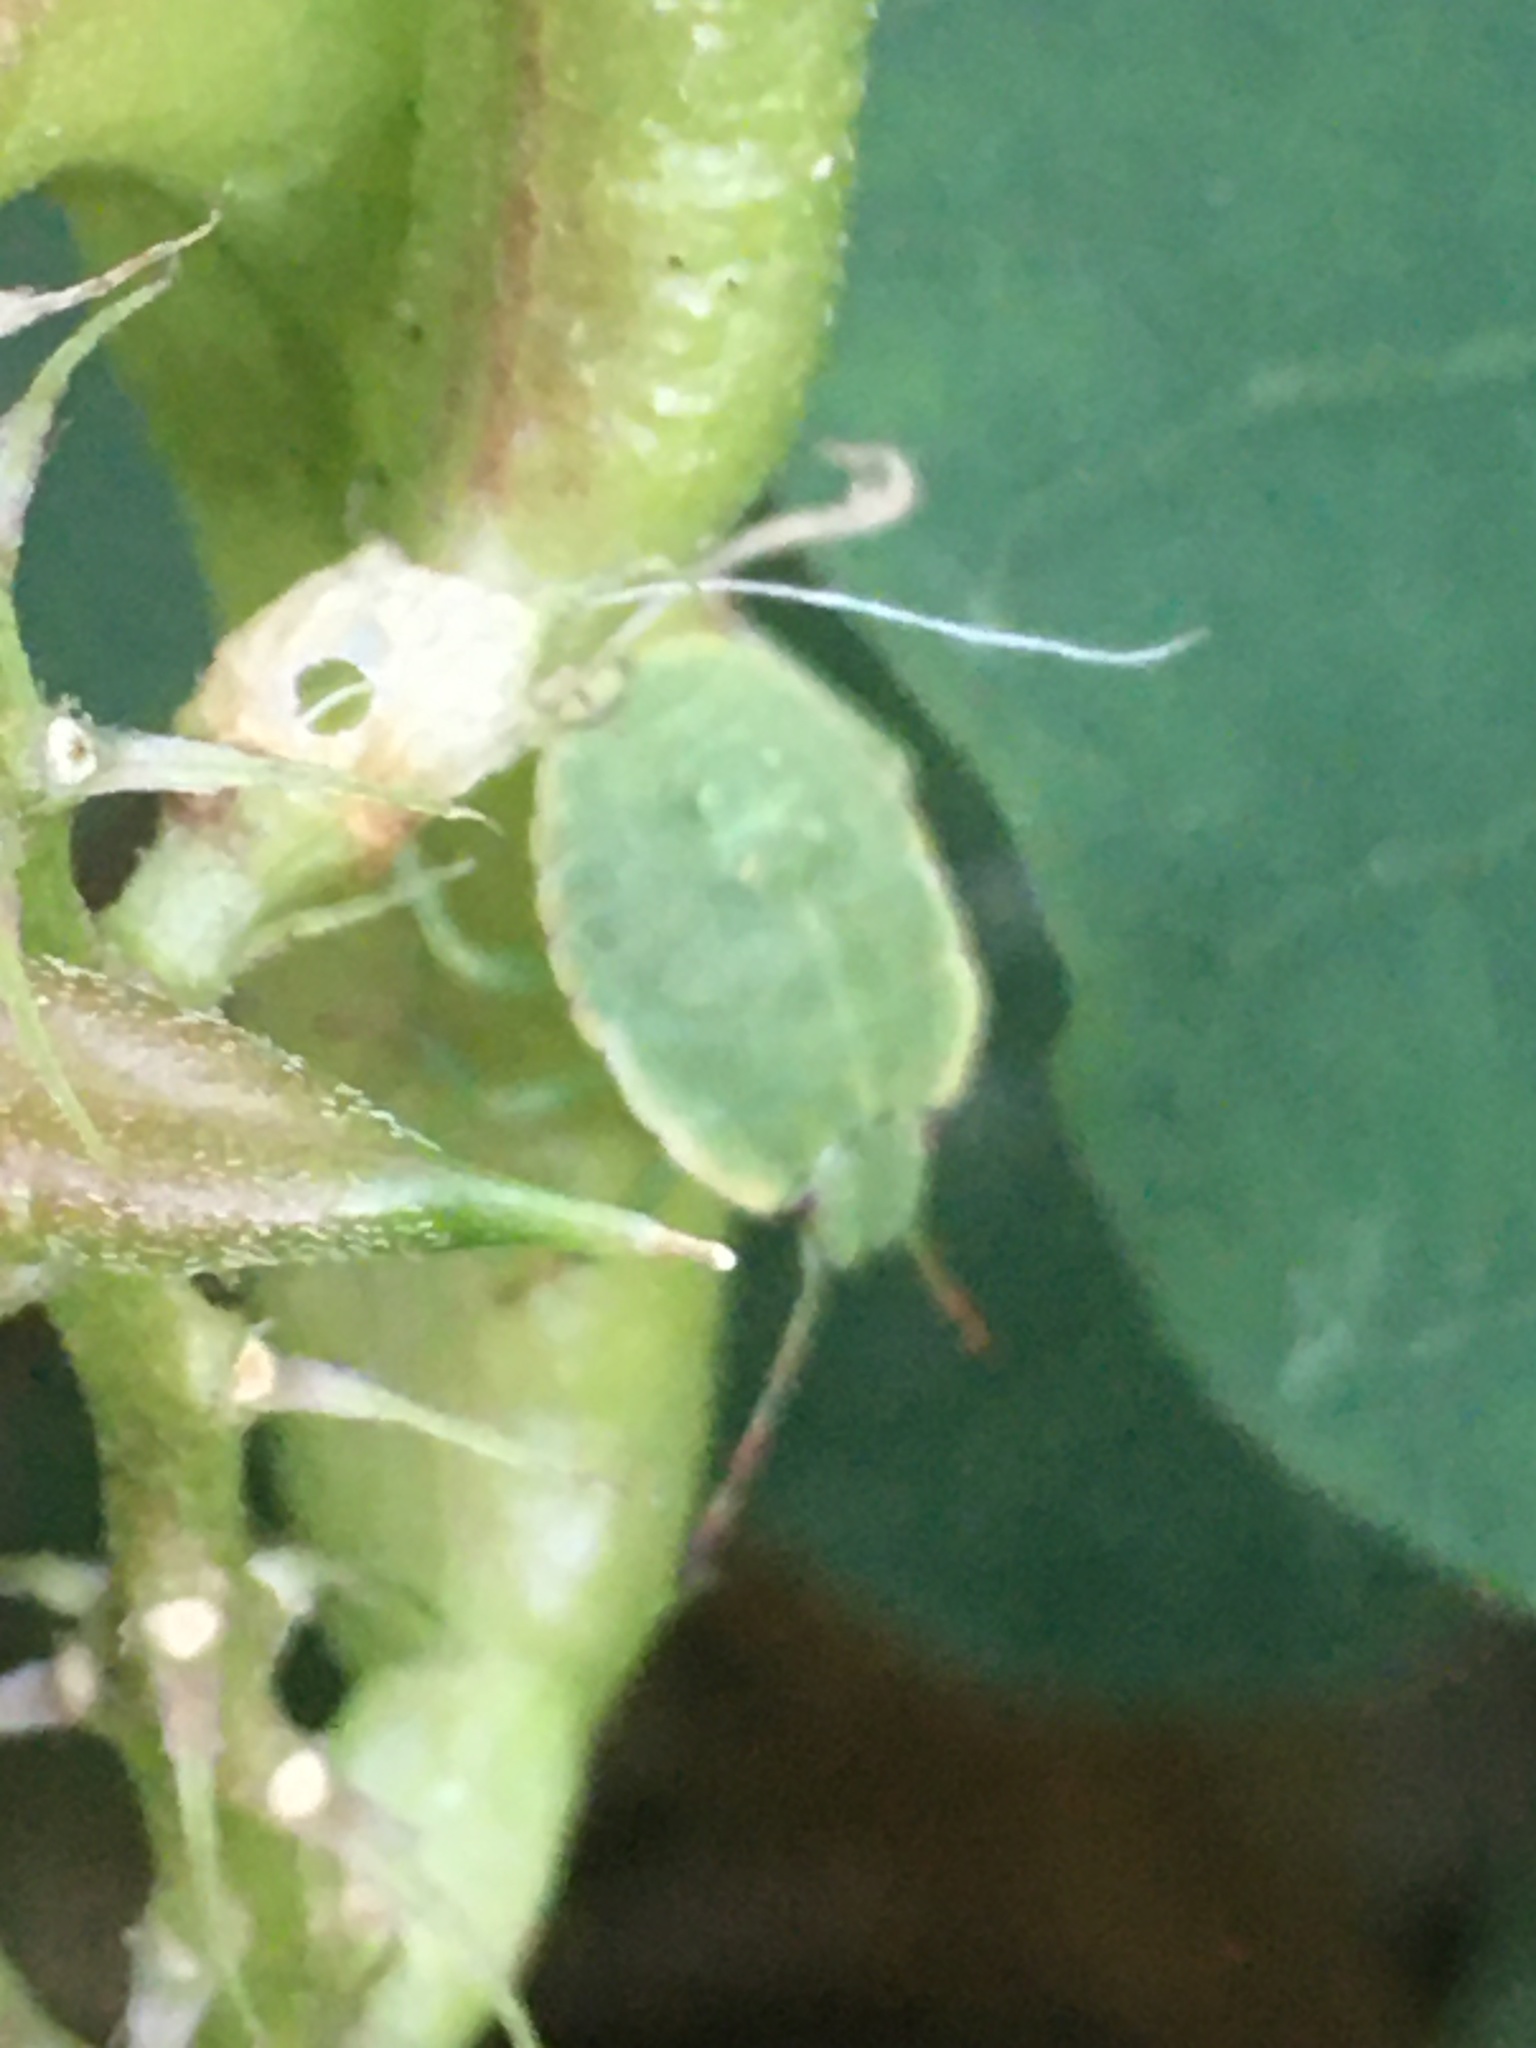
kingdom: Animalia
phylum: Arthropoda
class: Insecta
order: Hemiptera
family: Pentatomidae
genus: Palomena
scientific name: Palomena prasina
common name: Green shieldbug
